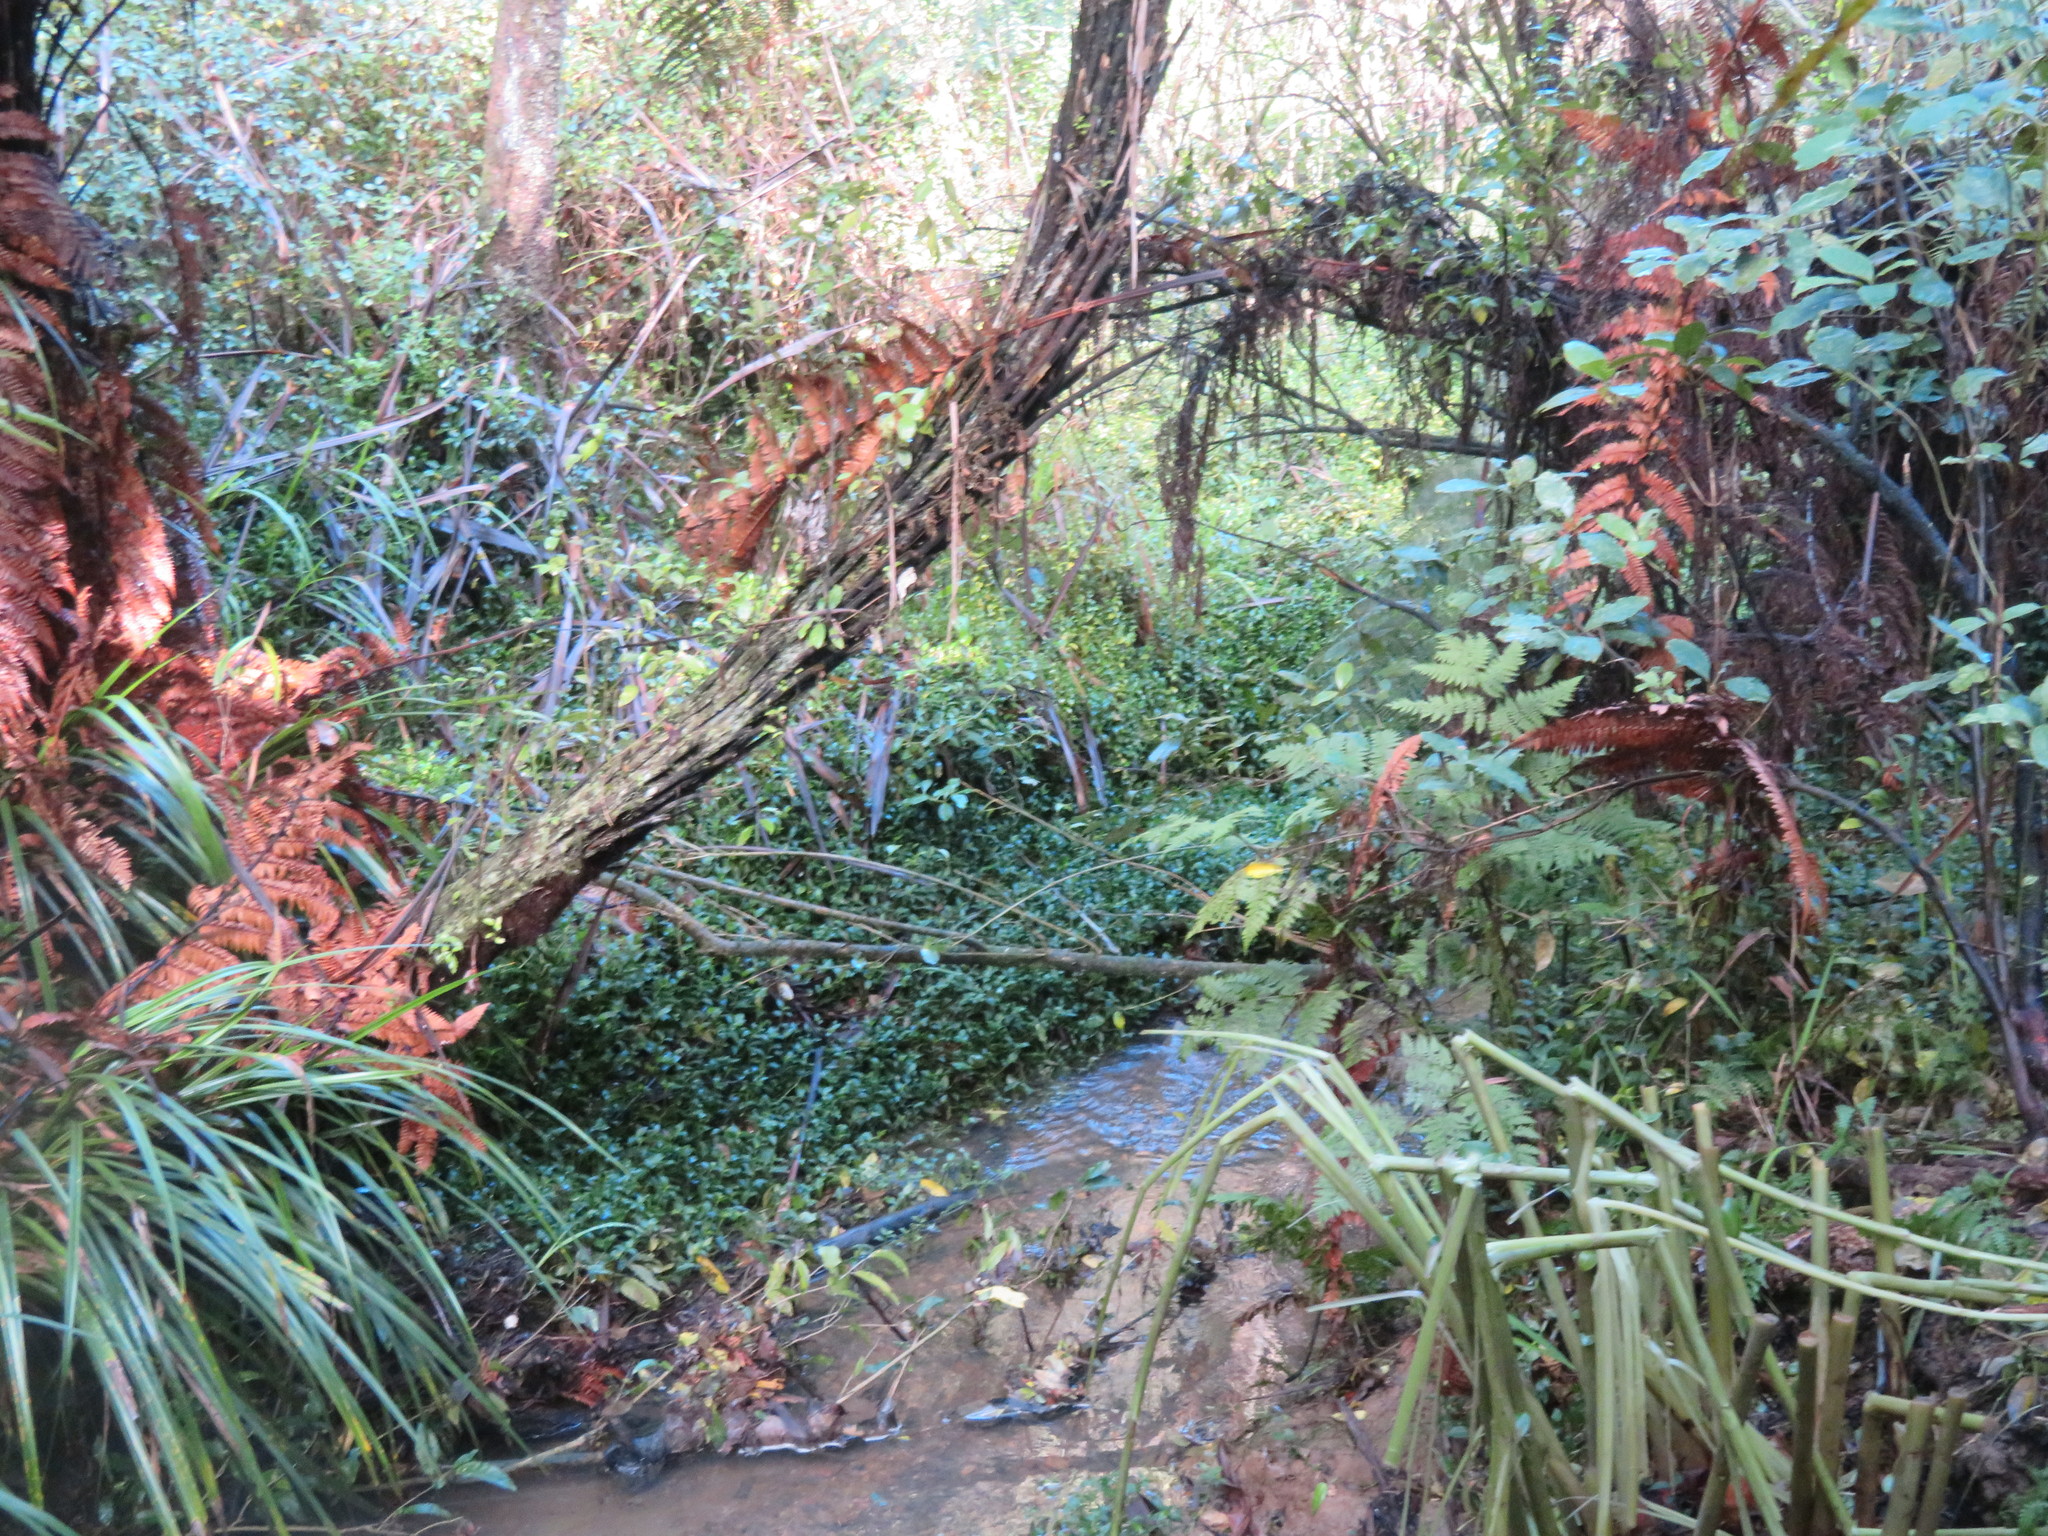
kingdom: Plantae
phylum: Tracheophyta
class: Liliopsida
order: Zingiberales
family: Zingiberaceae
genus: Hedychium
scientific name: Hedychium gardnerianum
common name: Himalayan ginger
